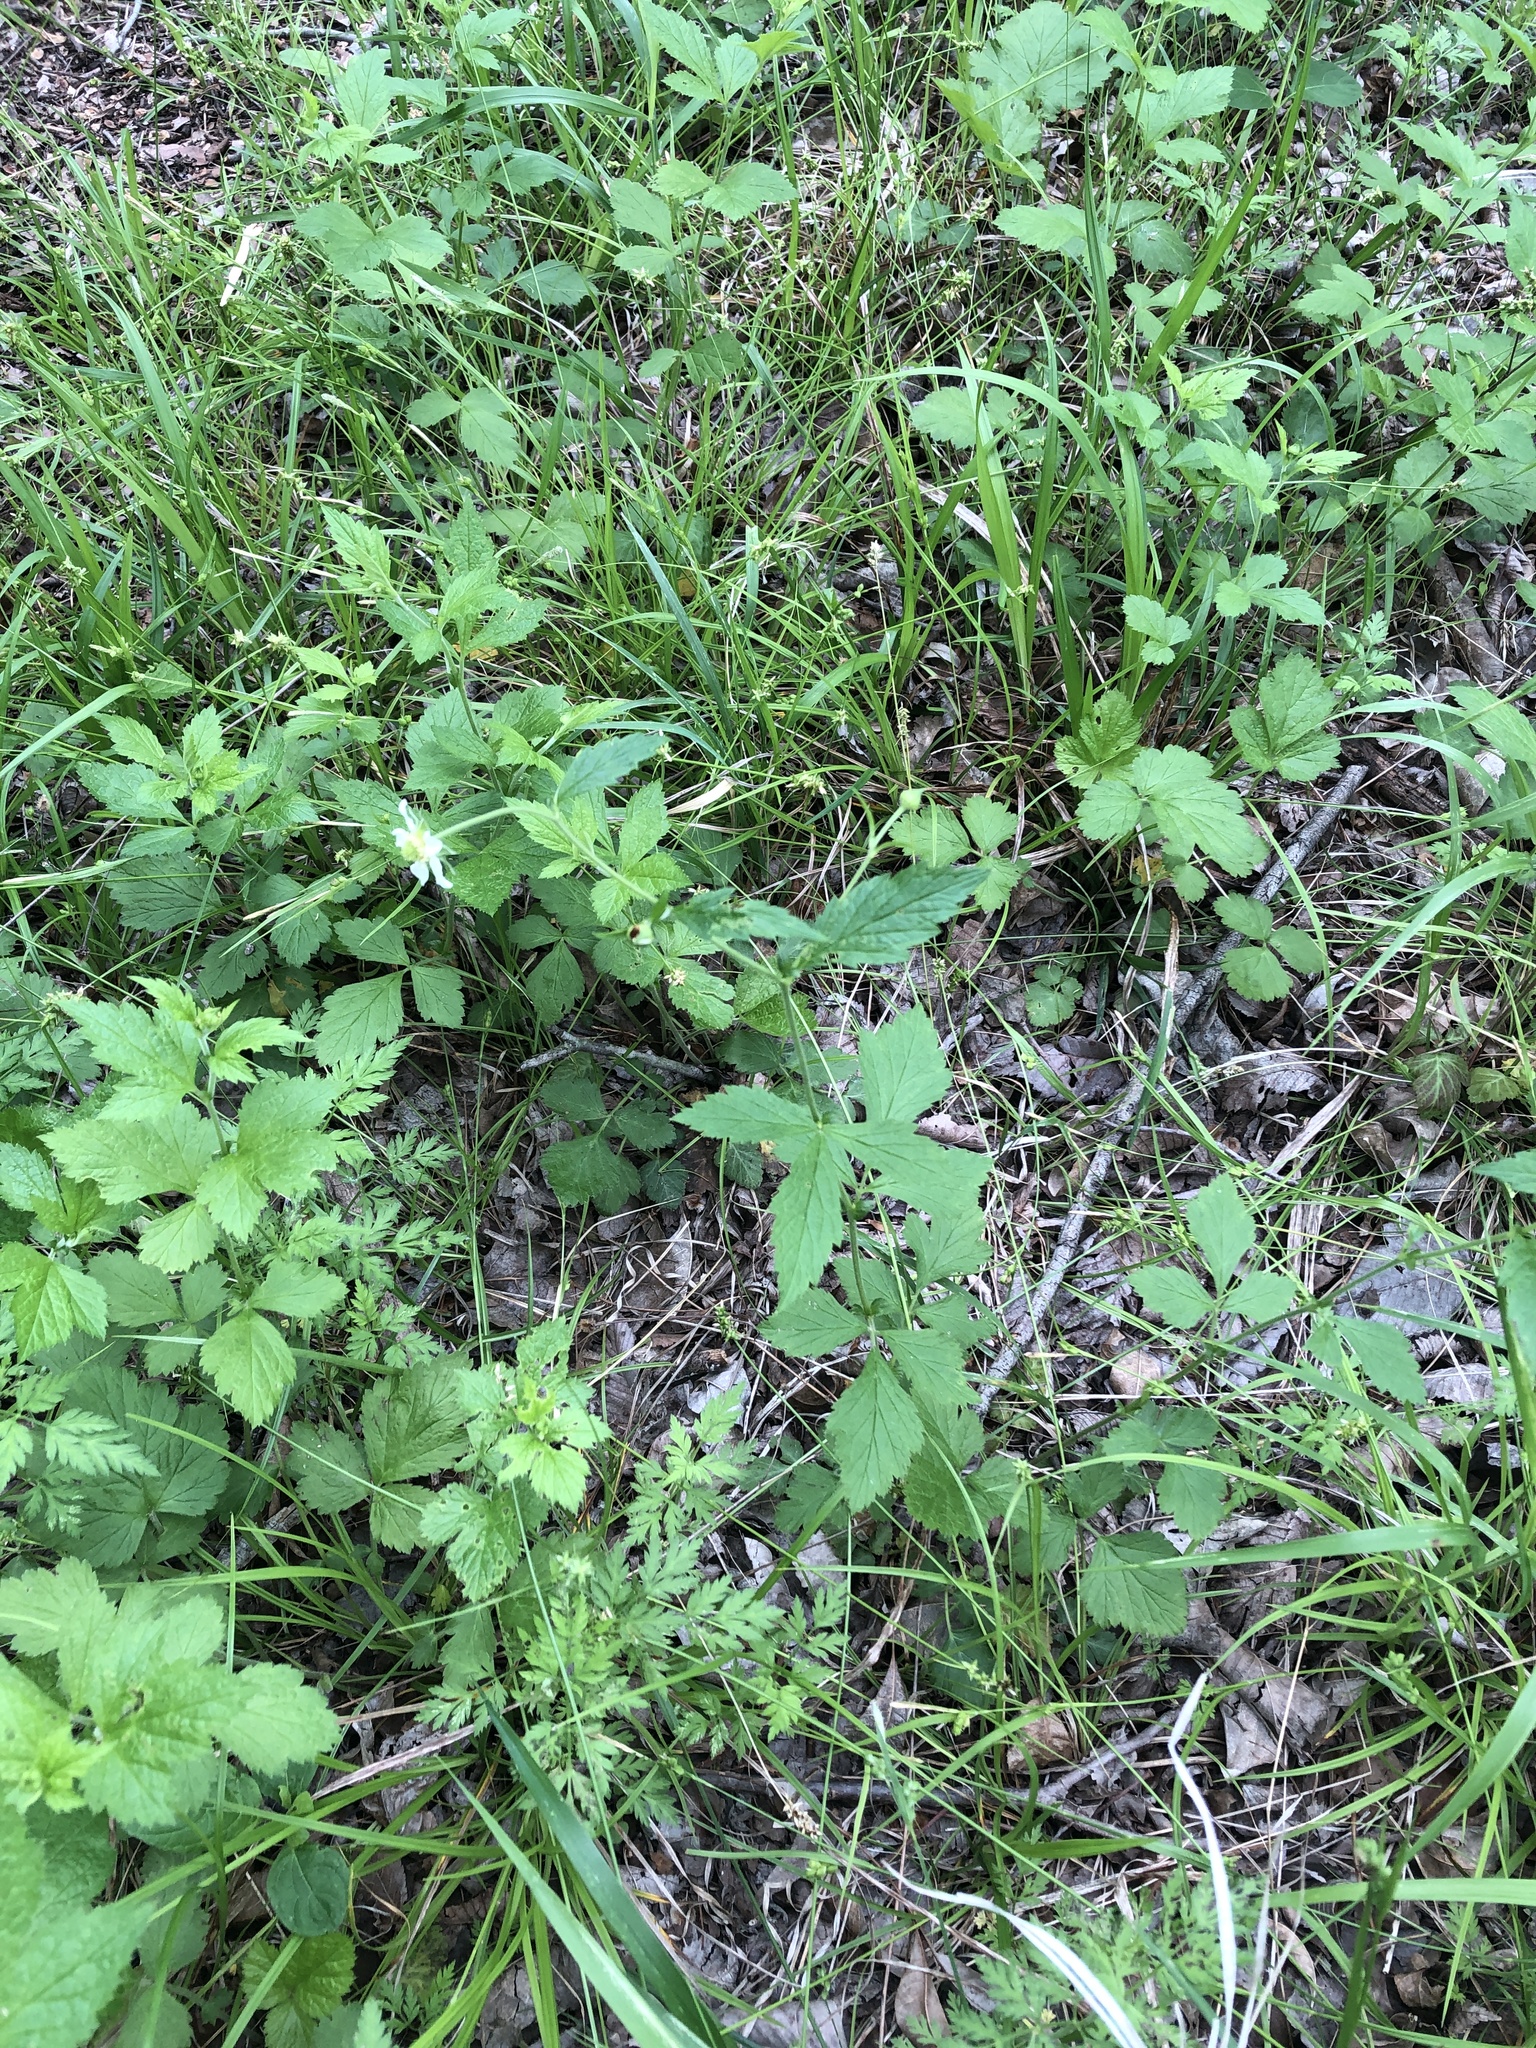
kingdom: Plantae
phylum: Tracheophyta
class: Magnoliopsida
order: Rosales
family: Rosaceae
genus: Geum
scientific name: Geum canadense
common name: White avens
